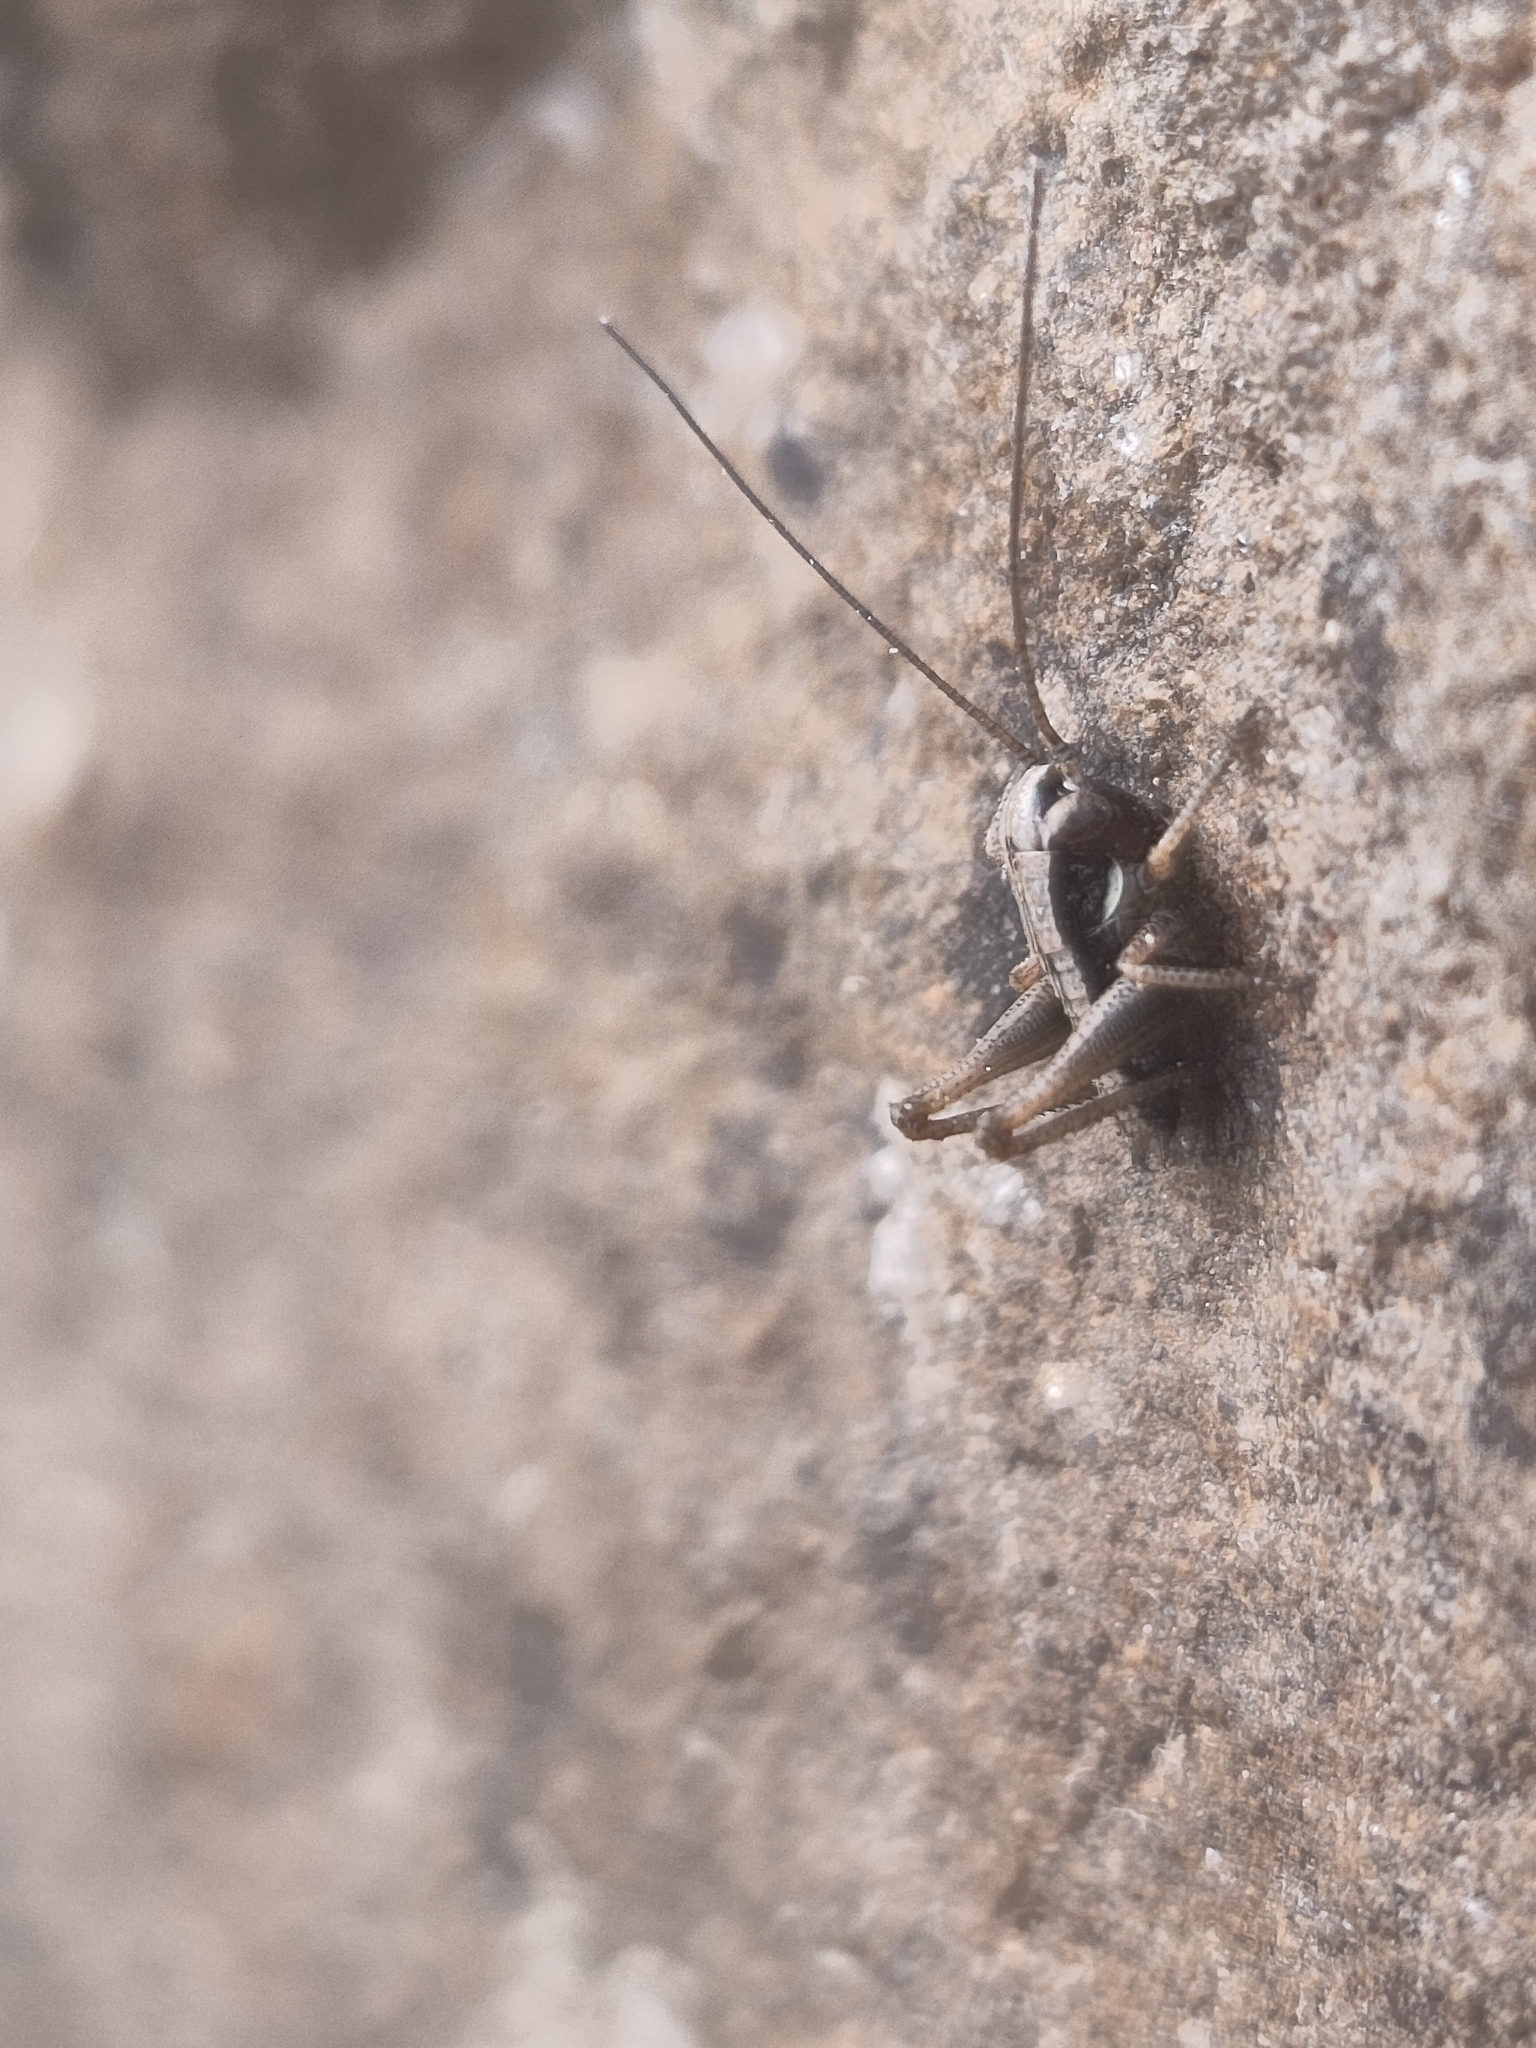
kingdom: Animalia
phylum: Arthropoda
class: Insecta
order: Orthoptera
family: Tettigoniidae
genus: Platycleis
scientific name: Platycleis grisea
